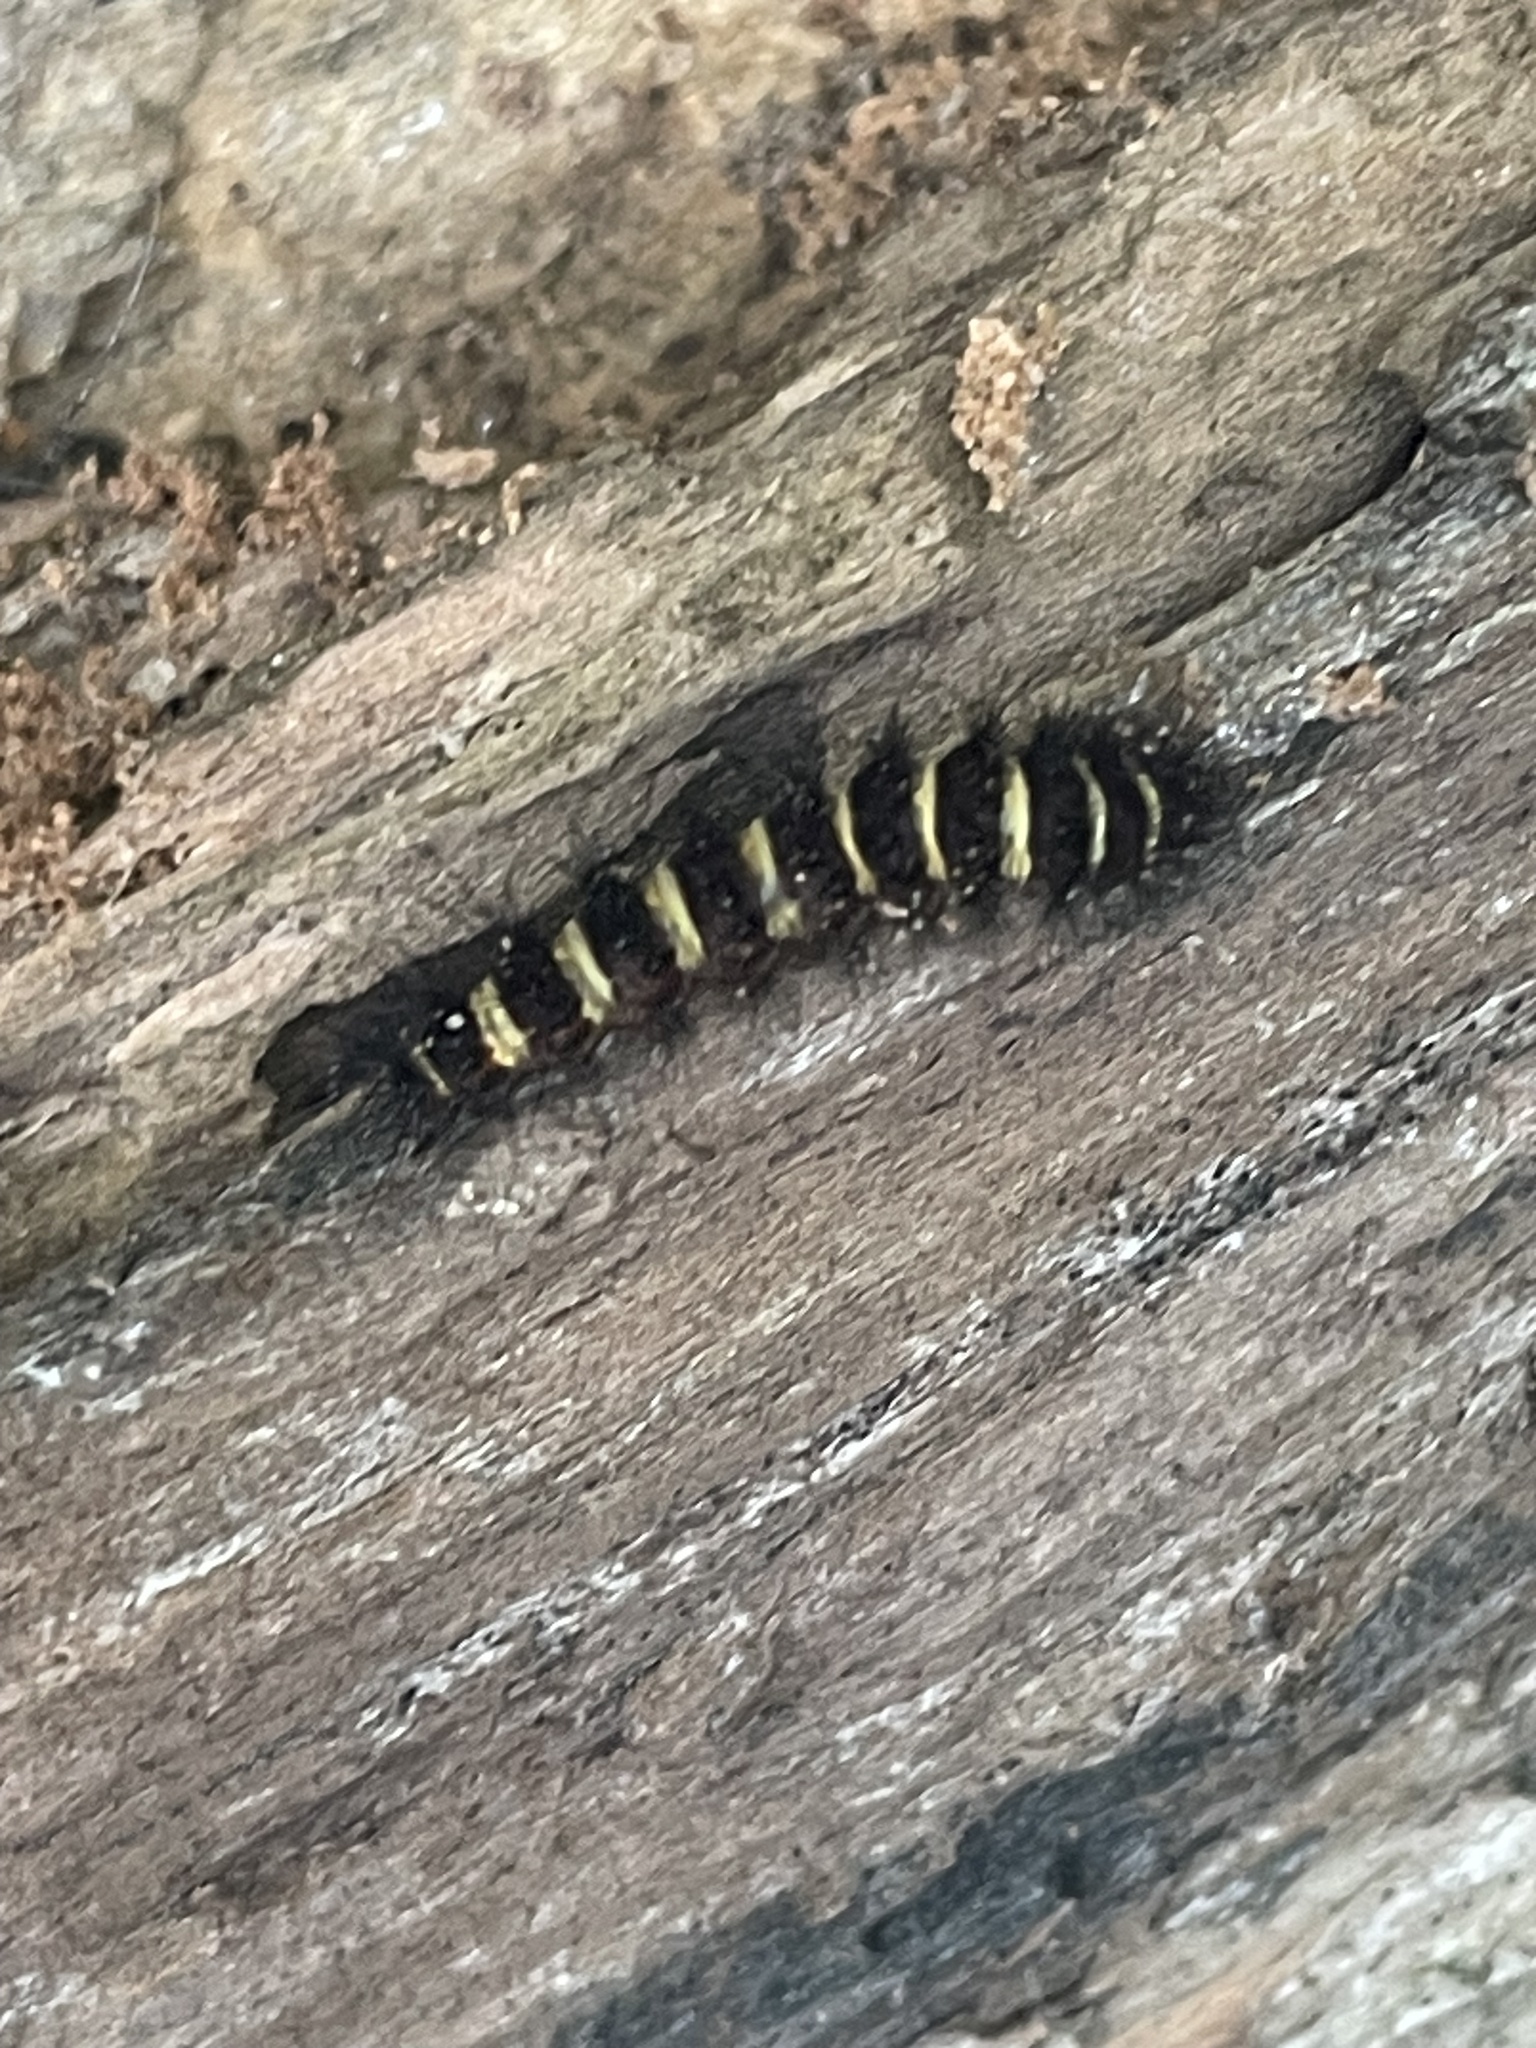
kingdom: Animalia
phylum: Arthropoda
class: Insecta
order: Lepidoptera
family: Erebidae
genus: Spilosoma
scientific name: Spilosoma congrua
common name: Agreeable tiger moth
